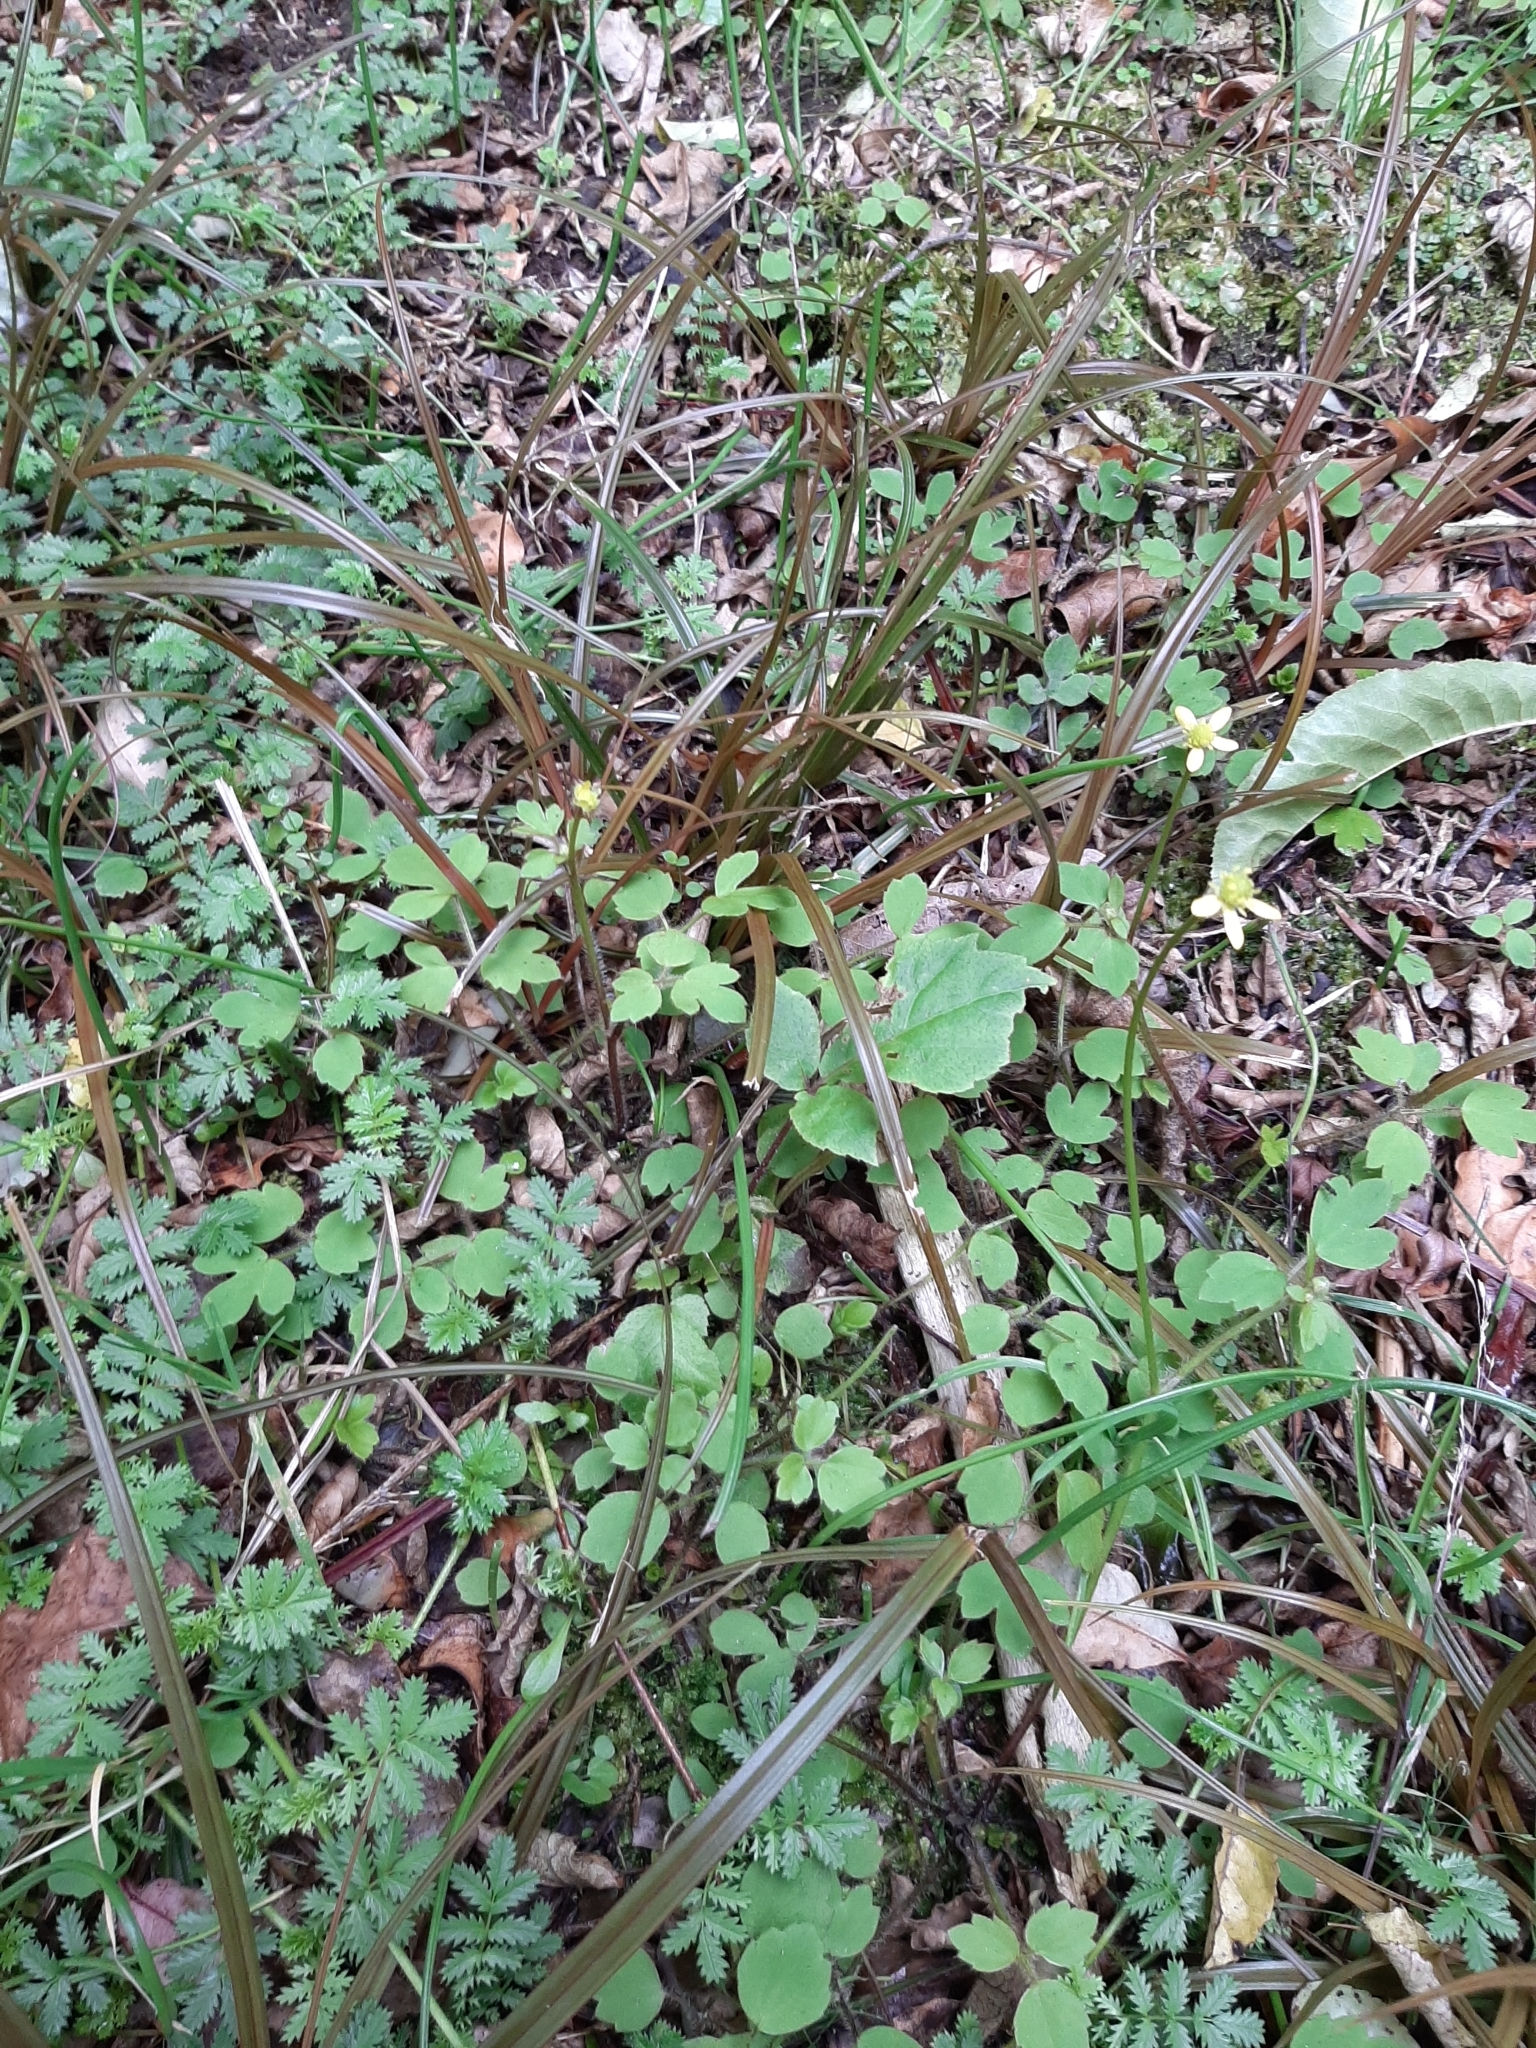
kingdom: Plantae
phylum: Tracheophyta
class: Magnoliopsida
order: Ranunculales
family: Ranunculaceae
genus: Ranunculus
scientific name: Ranunculus reflexus
